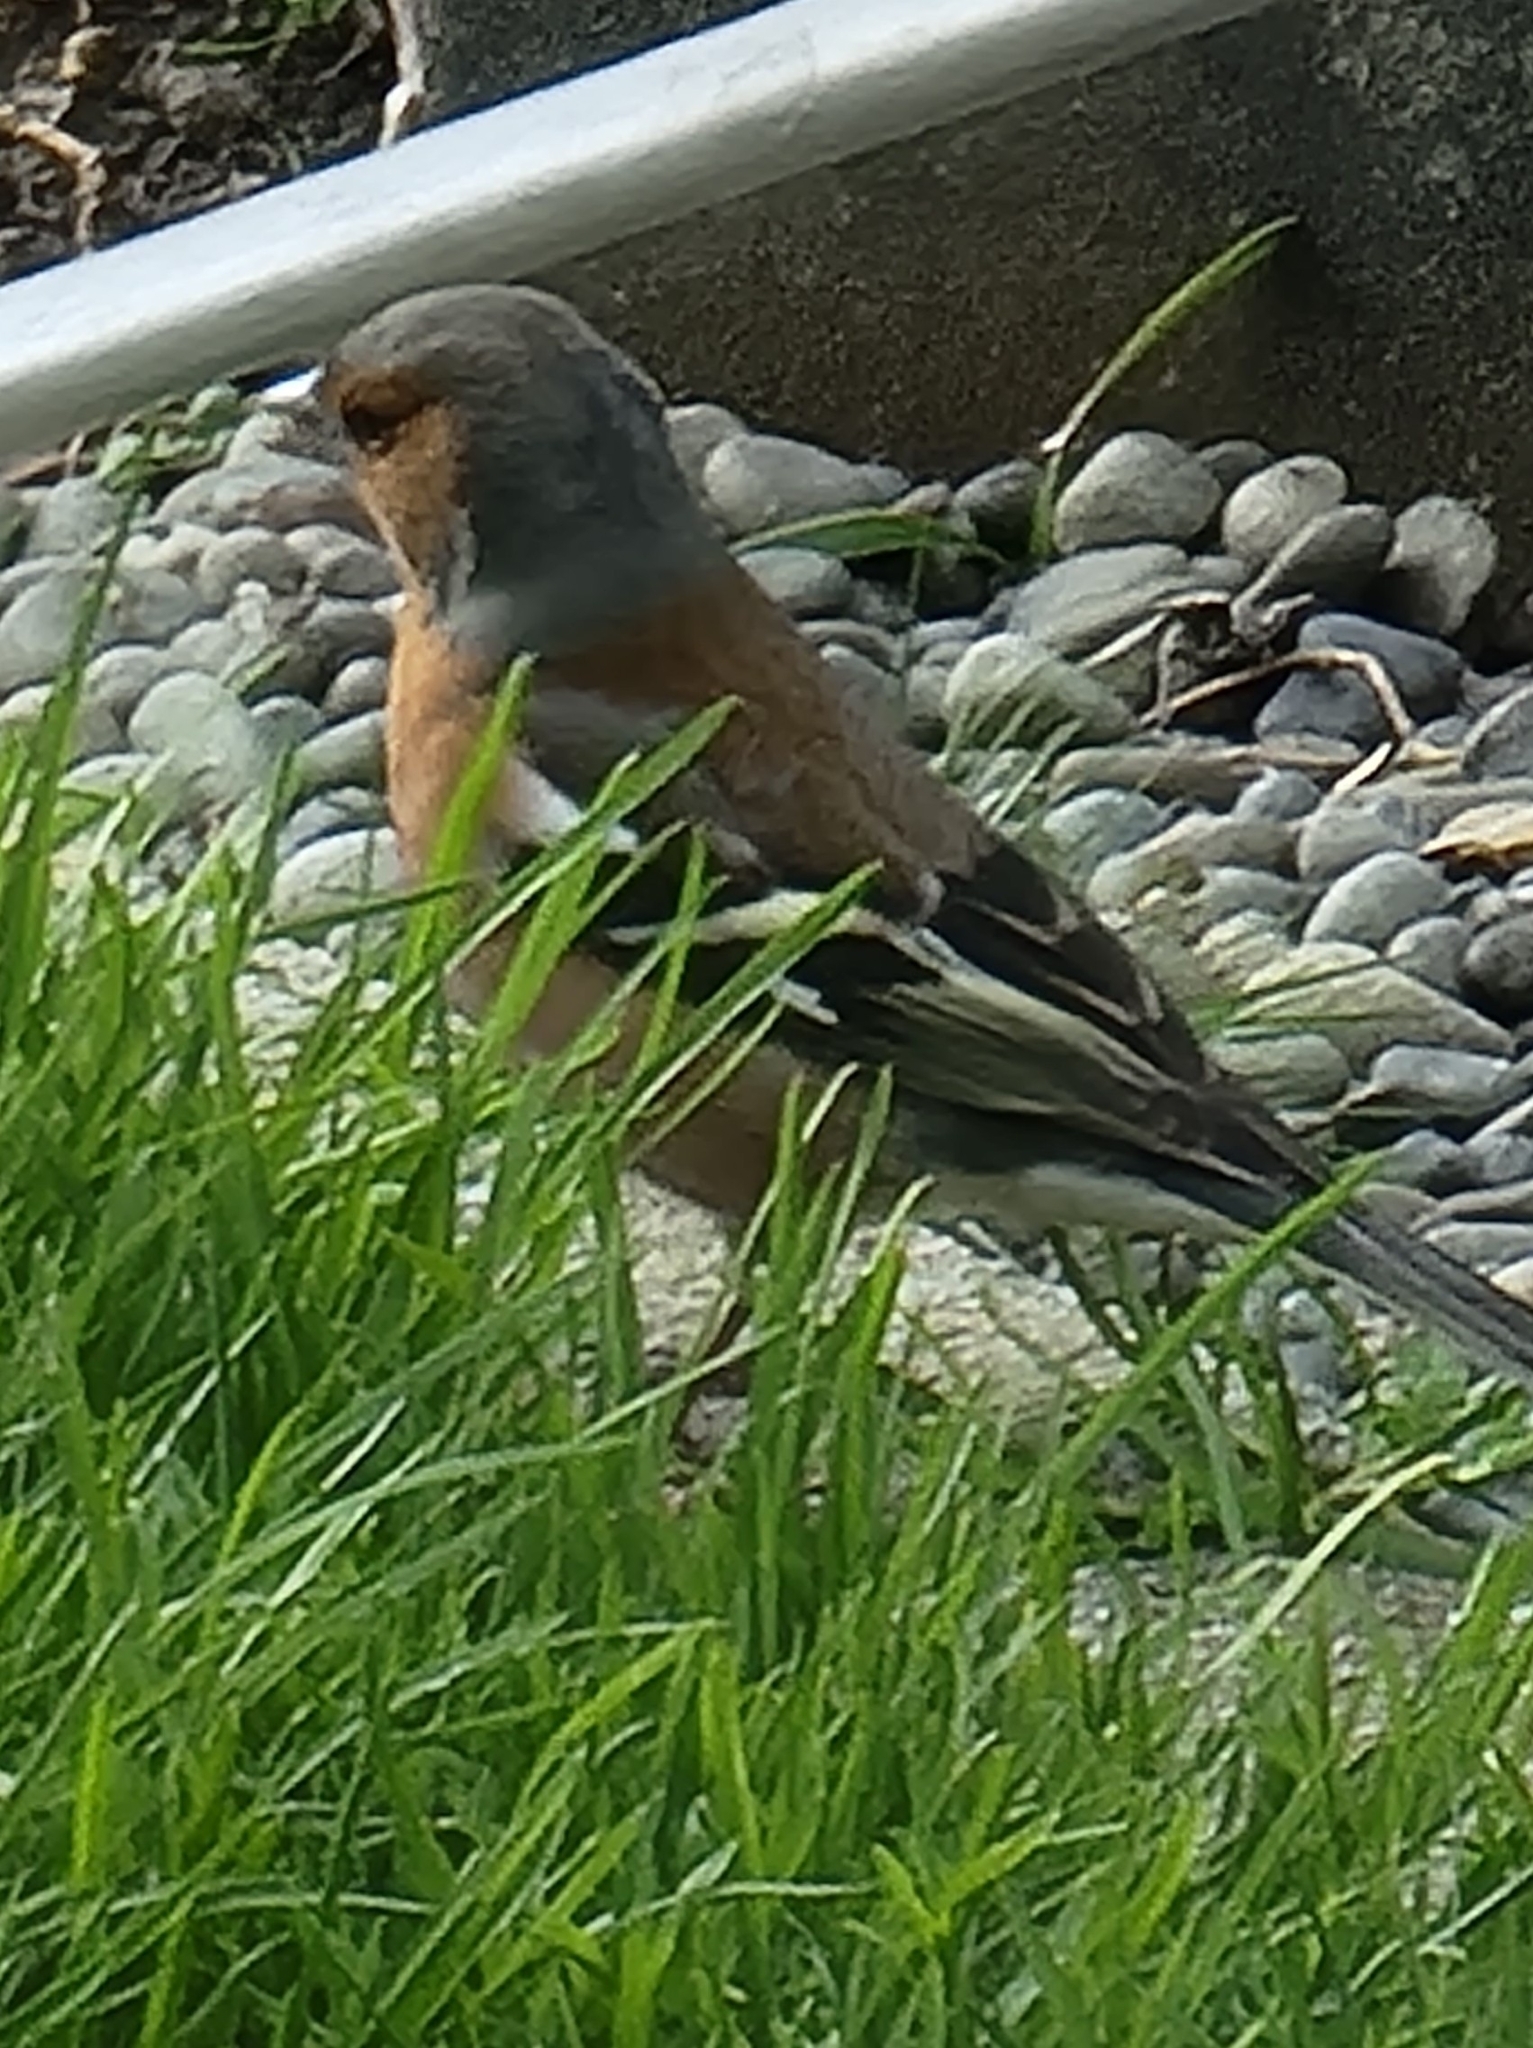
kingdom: Animalia
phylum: Chordata
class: Aves
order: Passeriformes
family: Fringillidae
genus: Fringilla
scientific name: Fringilla coelebs
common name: Common chaffinch
